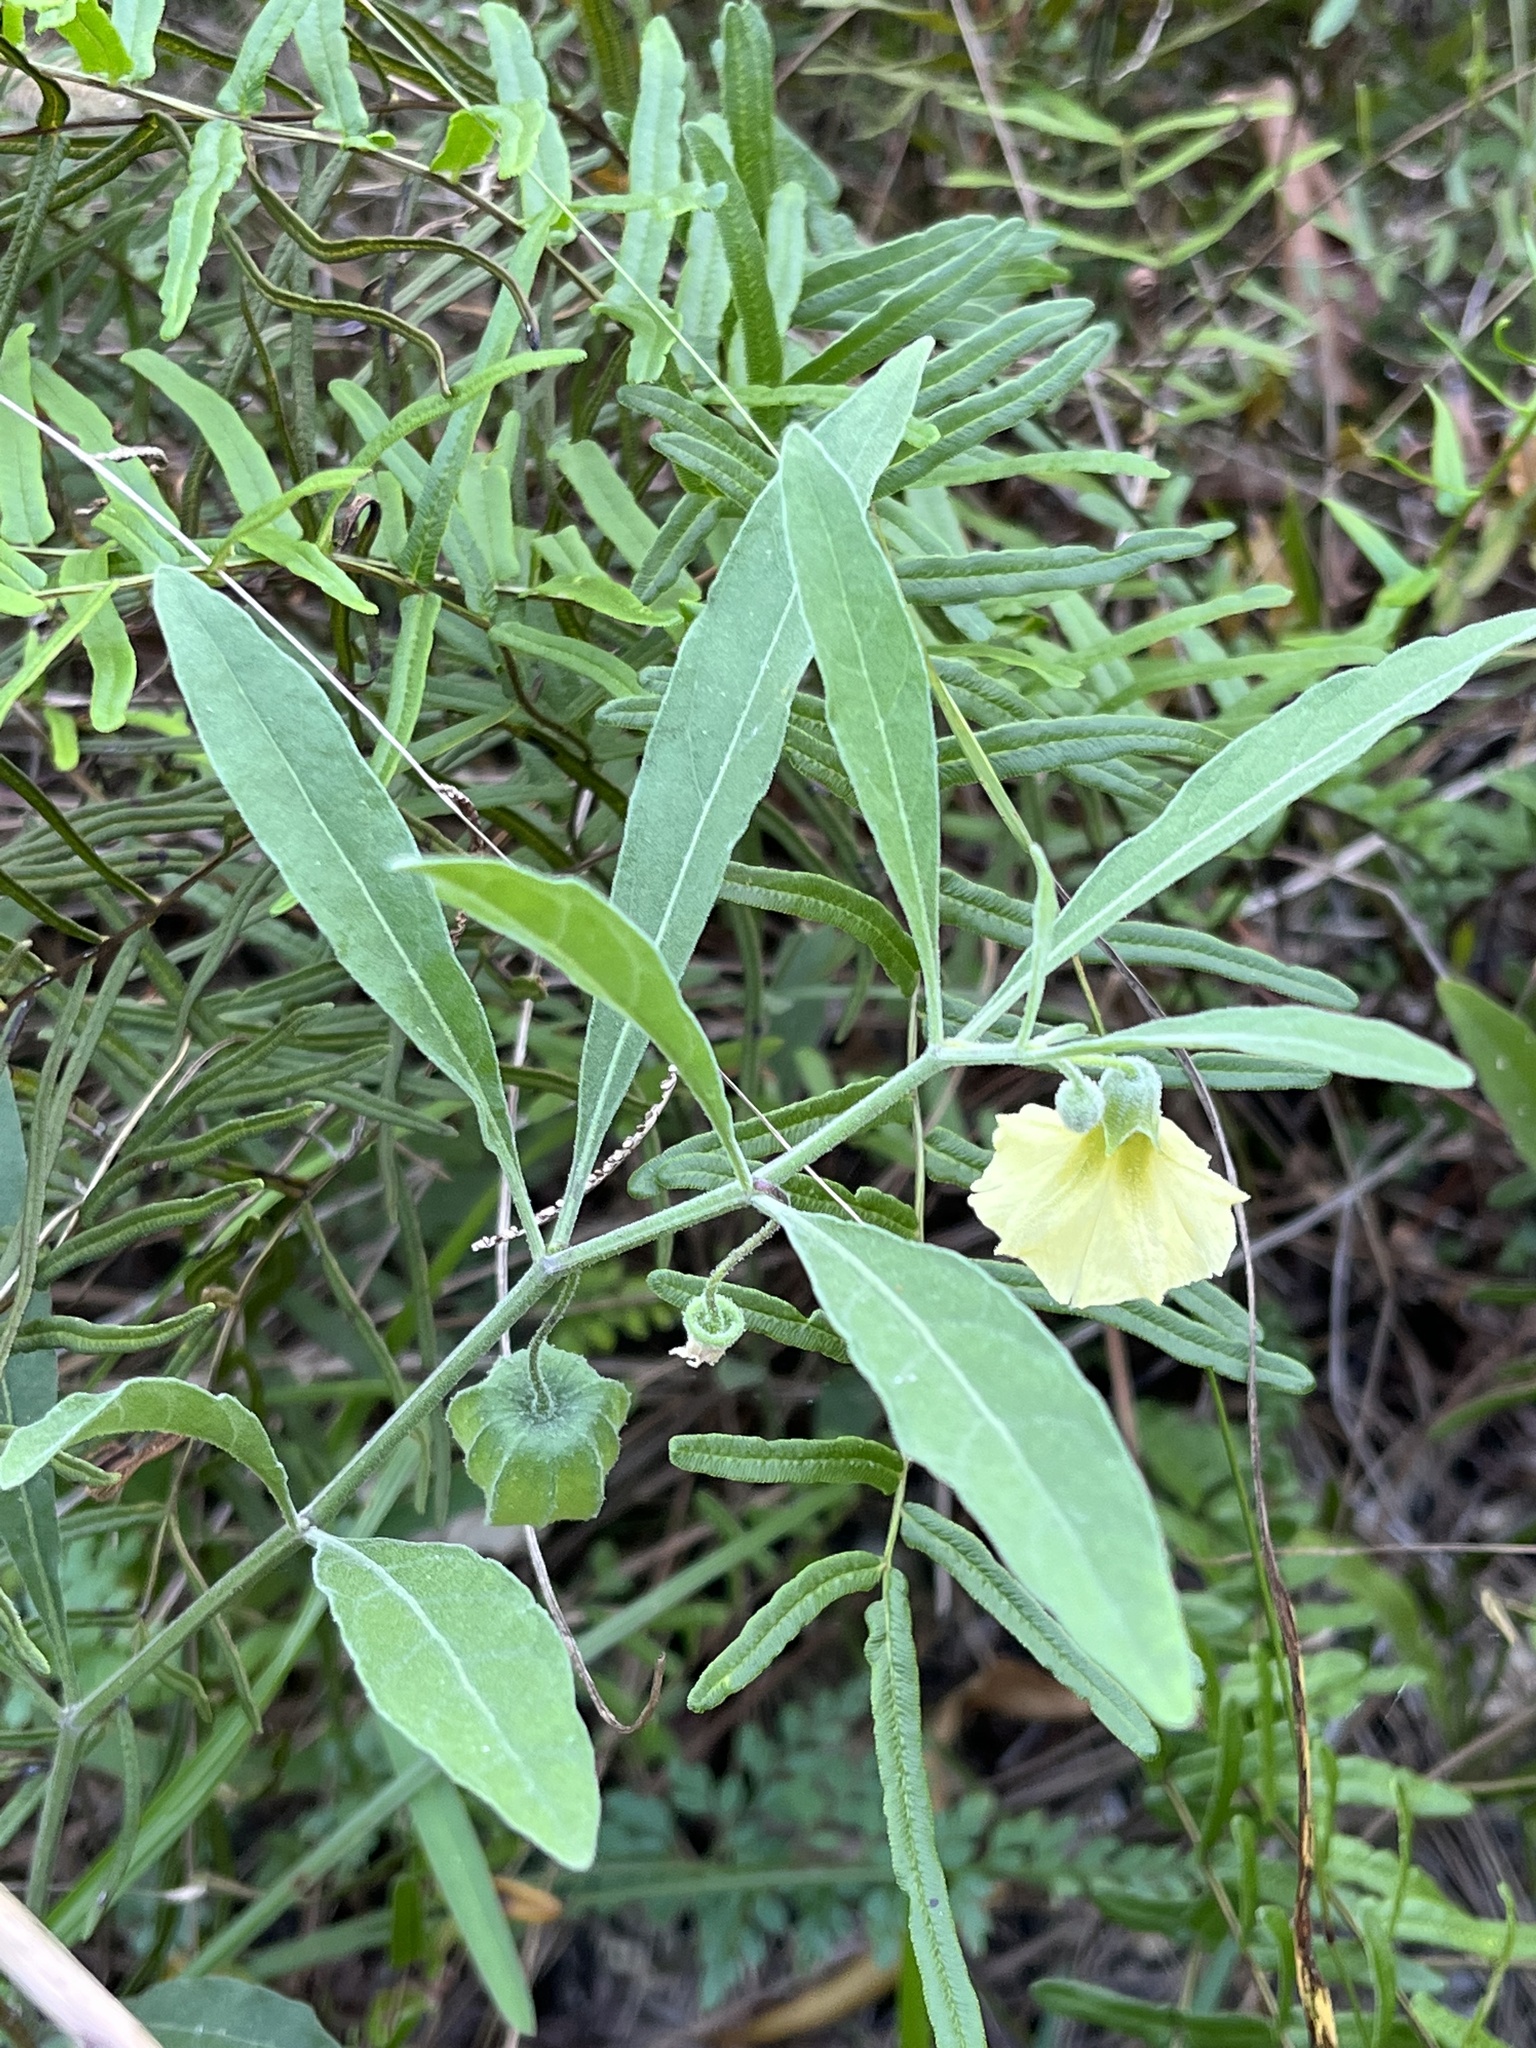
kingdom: Plantae
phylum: Tracheophyta
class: Magnoliopsida
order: Solanales
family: Solanaceae
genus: Physalis
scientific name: Physalis walteri
